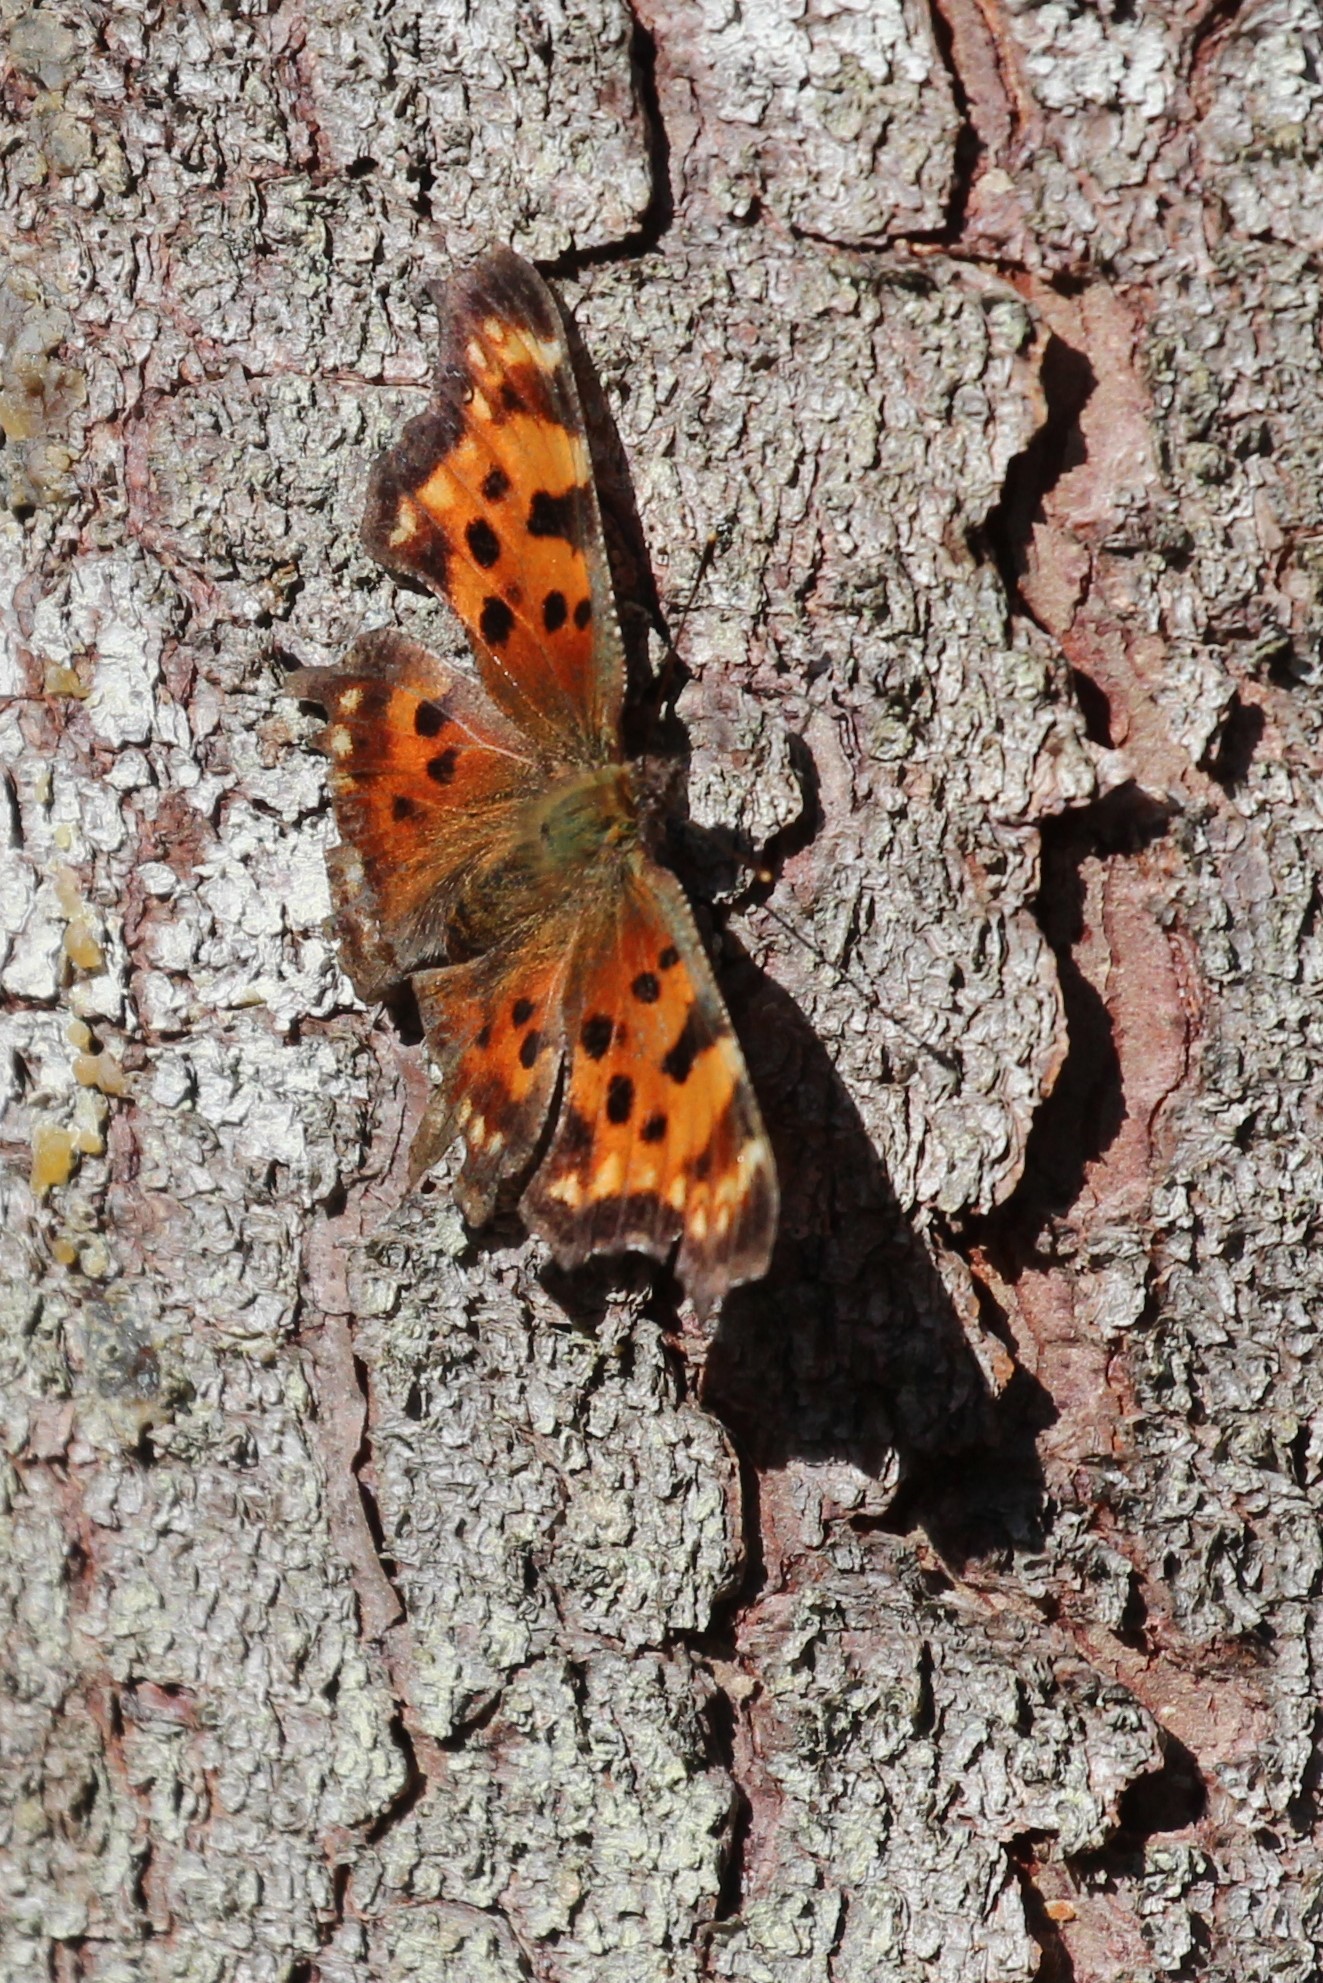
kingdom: Animalia
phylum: Arthropoda
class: Insecta
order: Lepidoptera
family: Nymphalidae
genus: Polygonia
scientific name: Polygonia faunus
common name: Green comma
